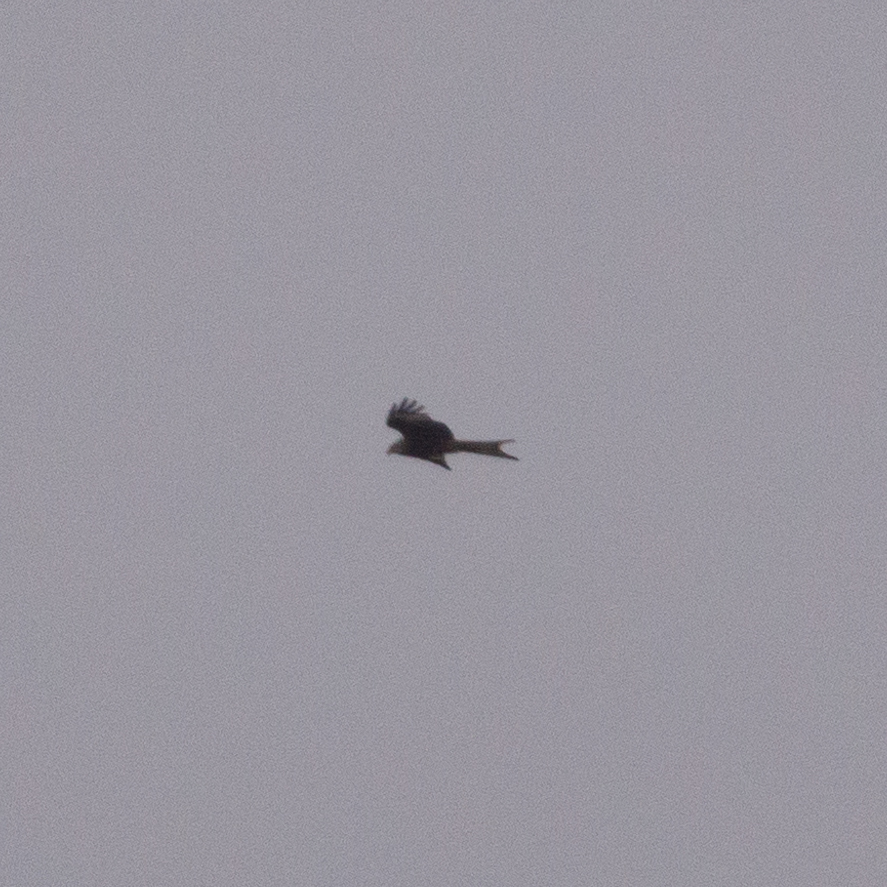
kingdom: Animalia
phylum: Chordata
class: Aves
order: Accipitriformes
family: Accipitridae
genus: Milvus
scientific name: Milvus milvus
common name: Red kite
